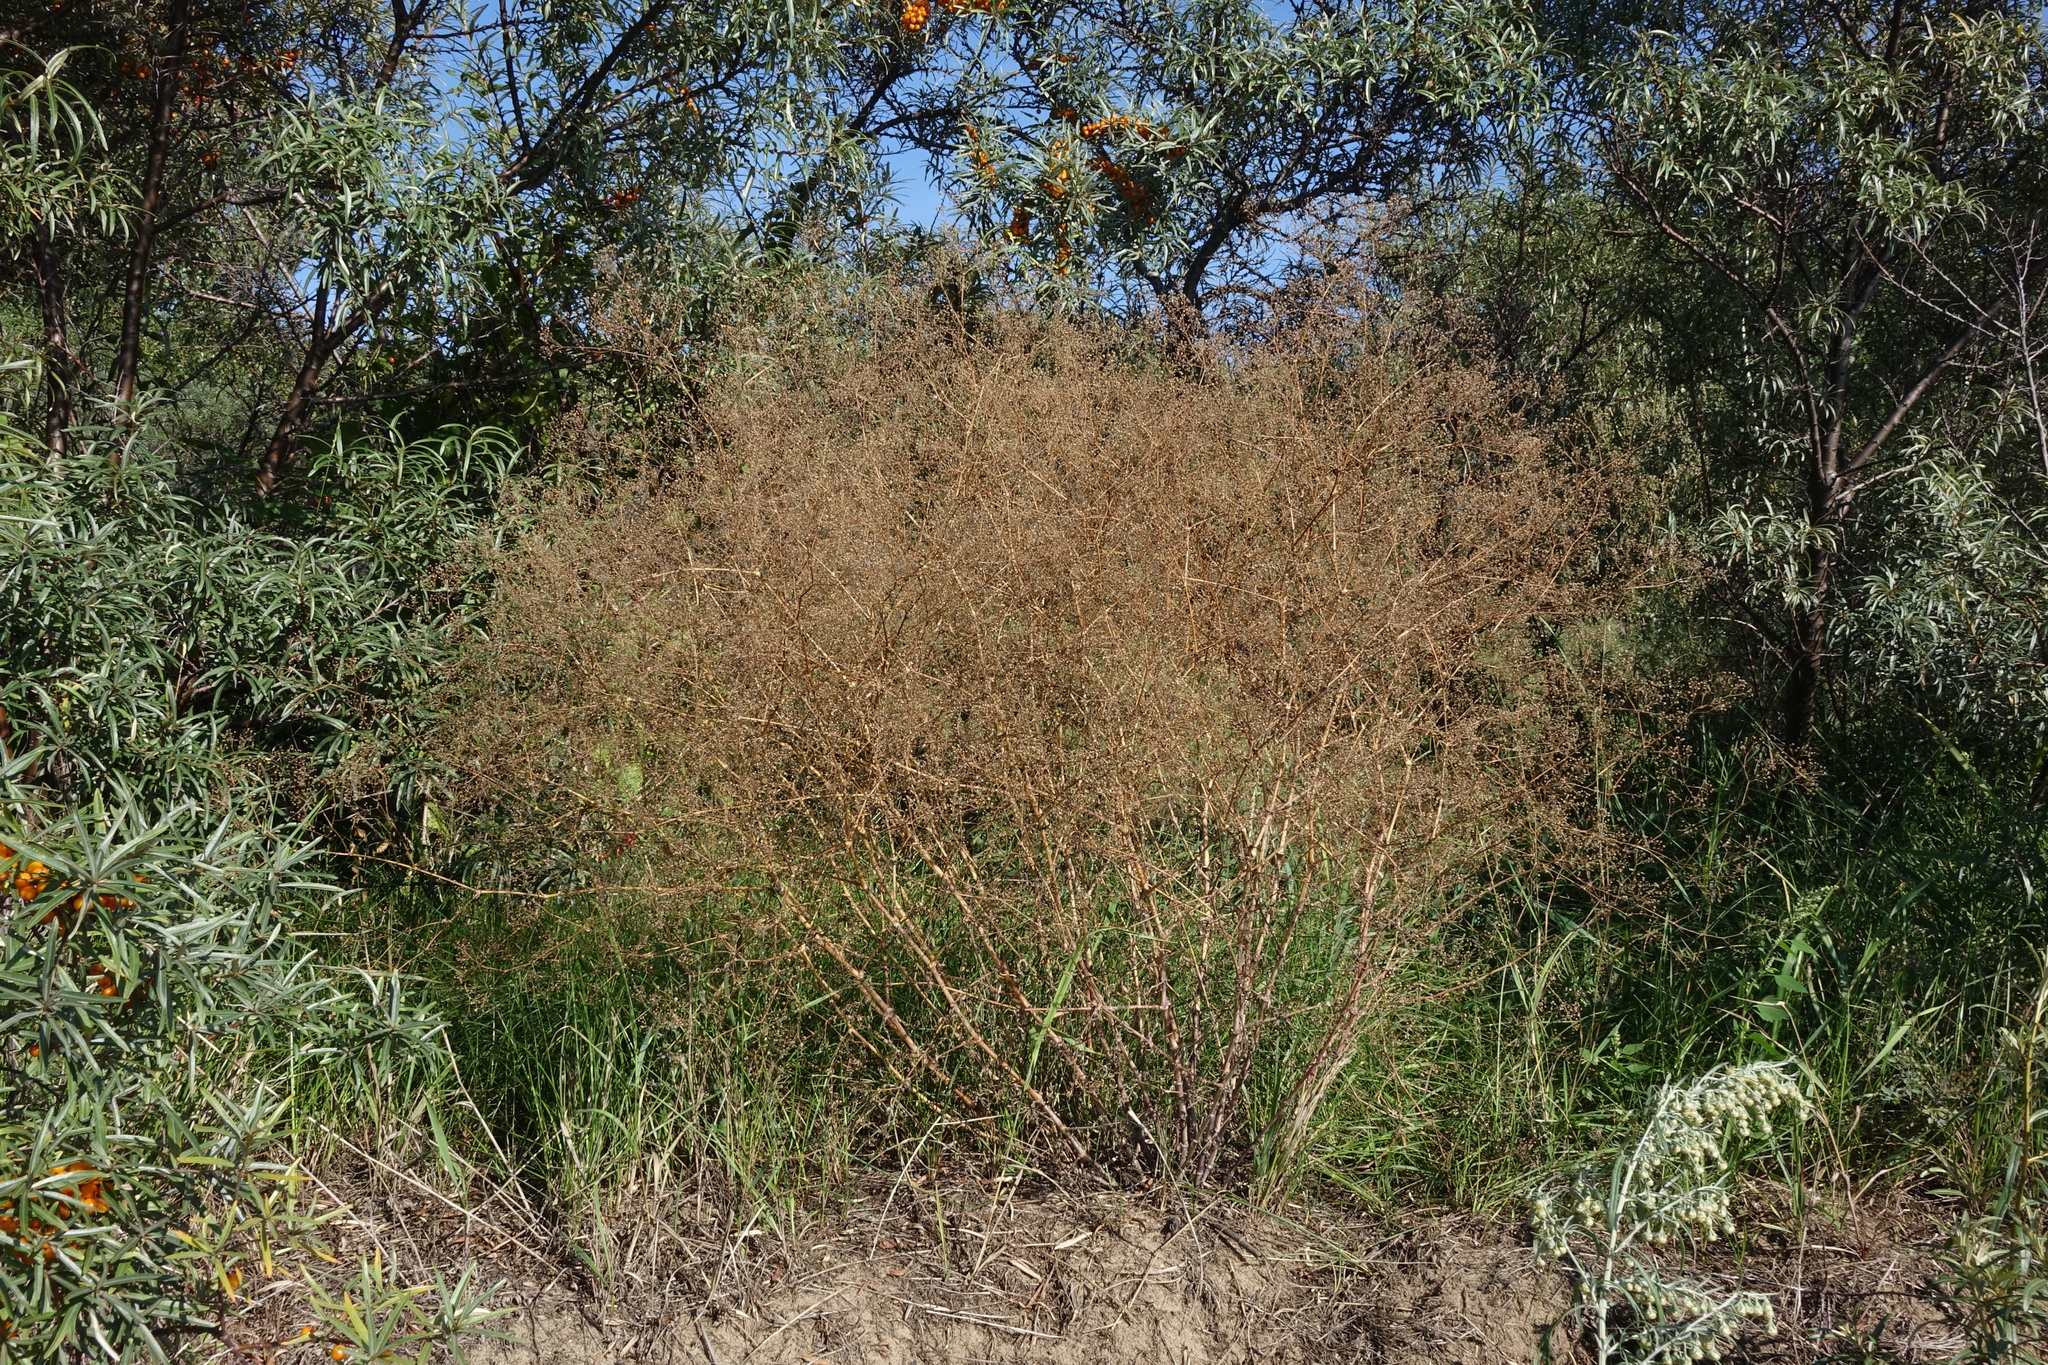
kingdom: Plantae
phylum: Tracheophyta
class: Magnoliopsida
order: Caryophyllales
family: Caryophyllaceae
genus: Gypsophila
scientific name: Gypsophila paniculata
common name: Baby's-breath
